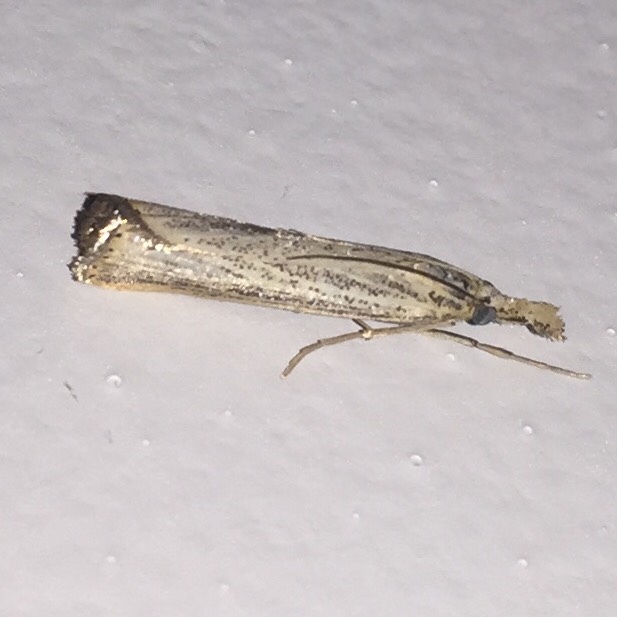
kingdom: Animalia
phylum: Arthropoda
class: Insecta
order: Lepidoptera
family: Crambidae
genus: Agriphila
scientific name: Agriphila vulgivagellus
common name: Vagabond crambus moth
